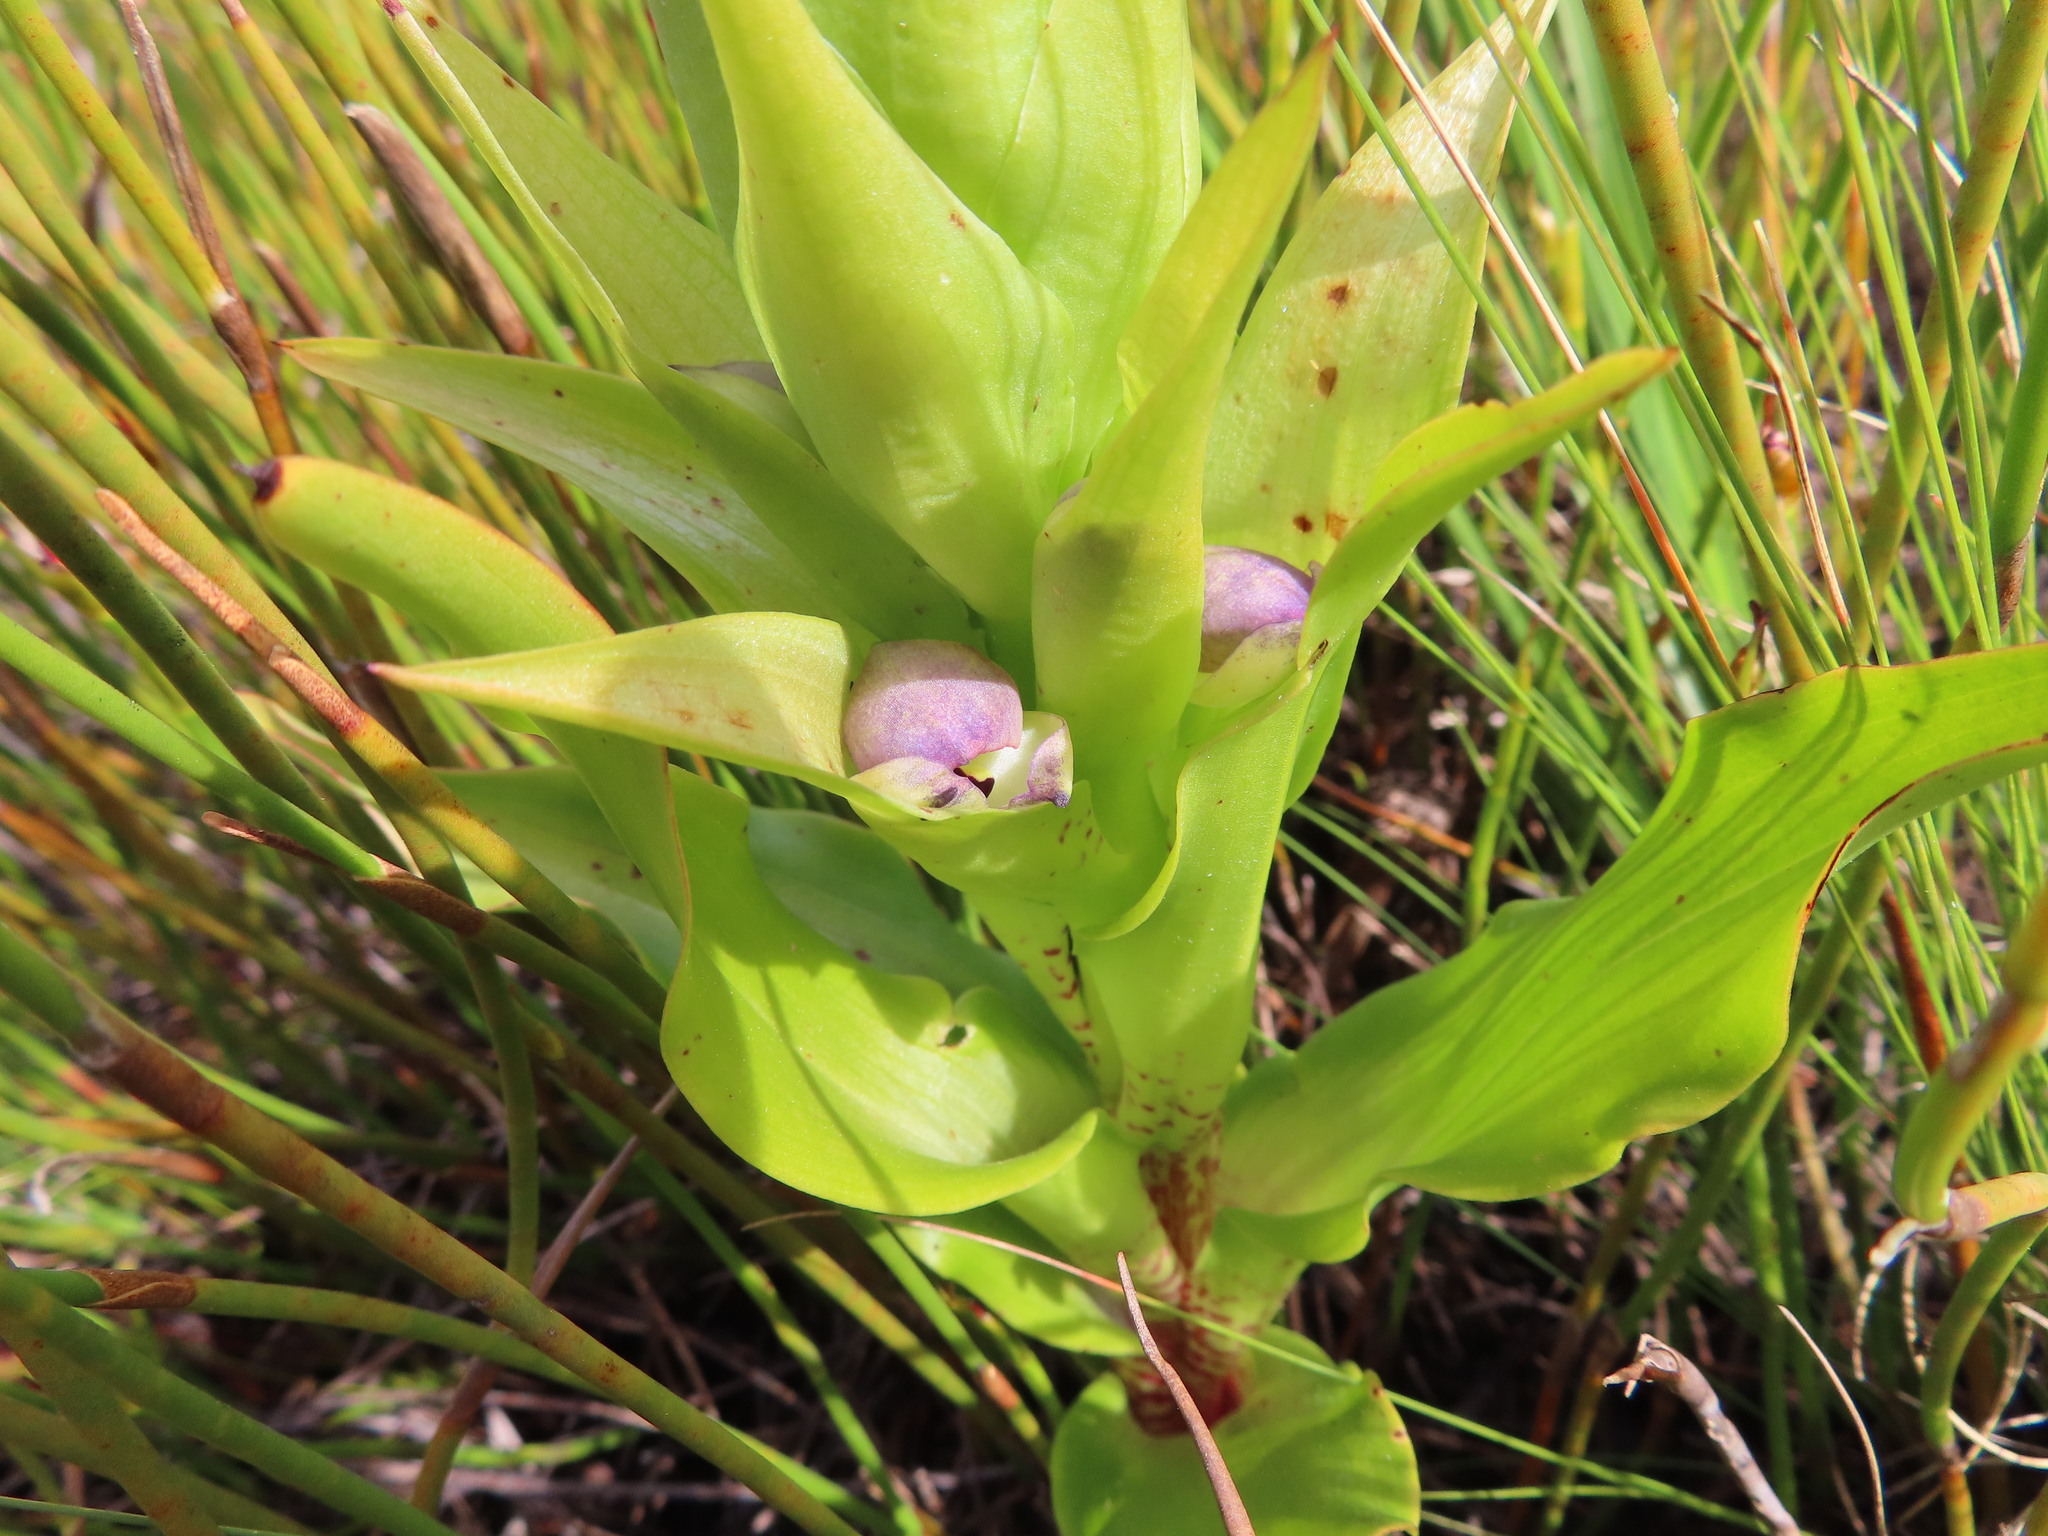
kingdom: Plantae
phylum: Tracheophyta
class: Liliopsida
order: Asparagales
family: Orchidaceae
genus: Disa
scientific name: Disa cornuta
